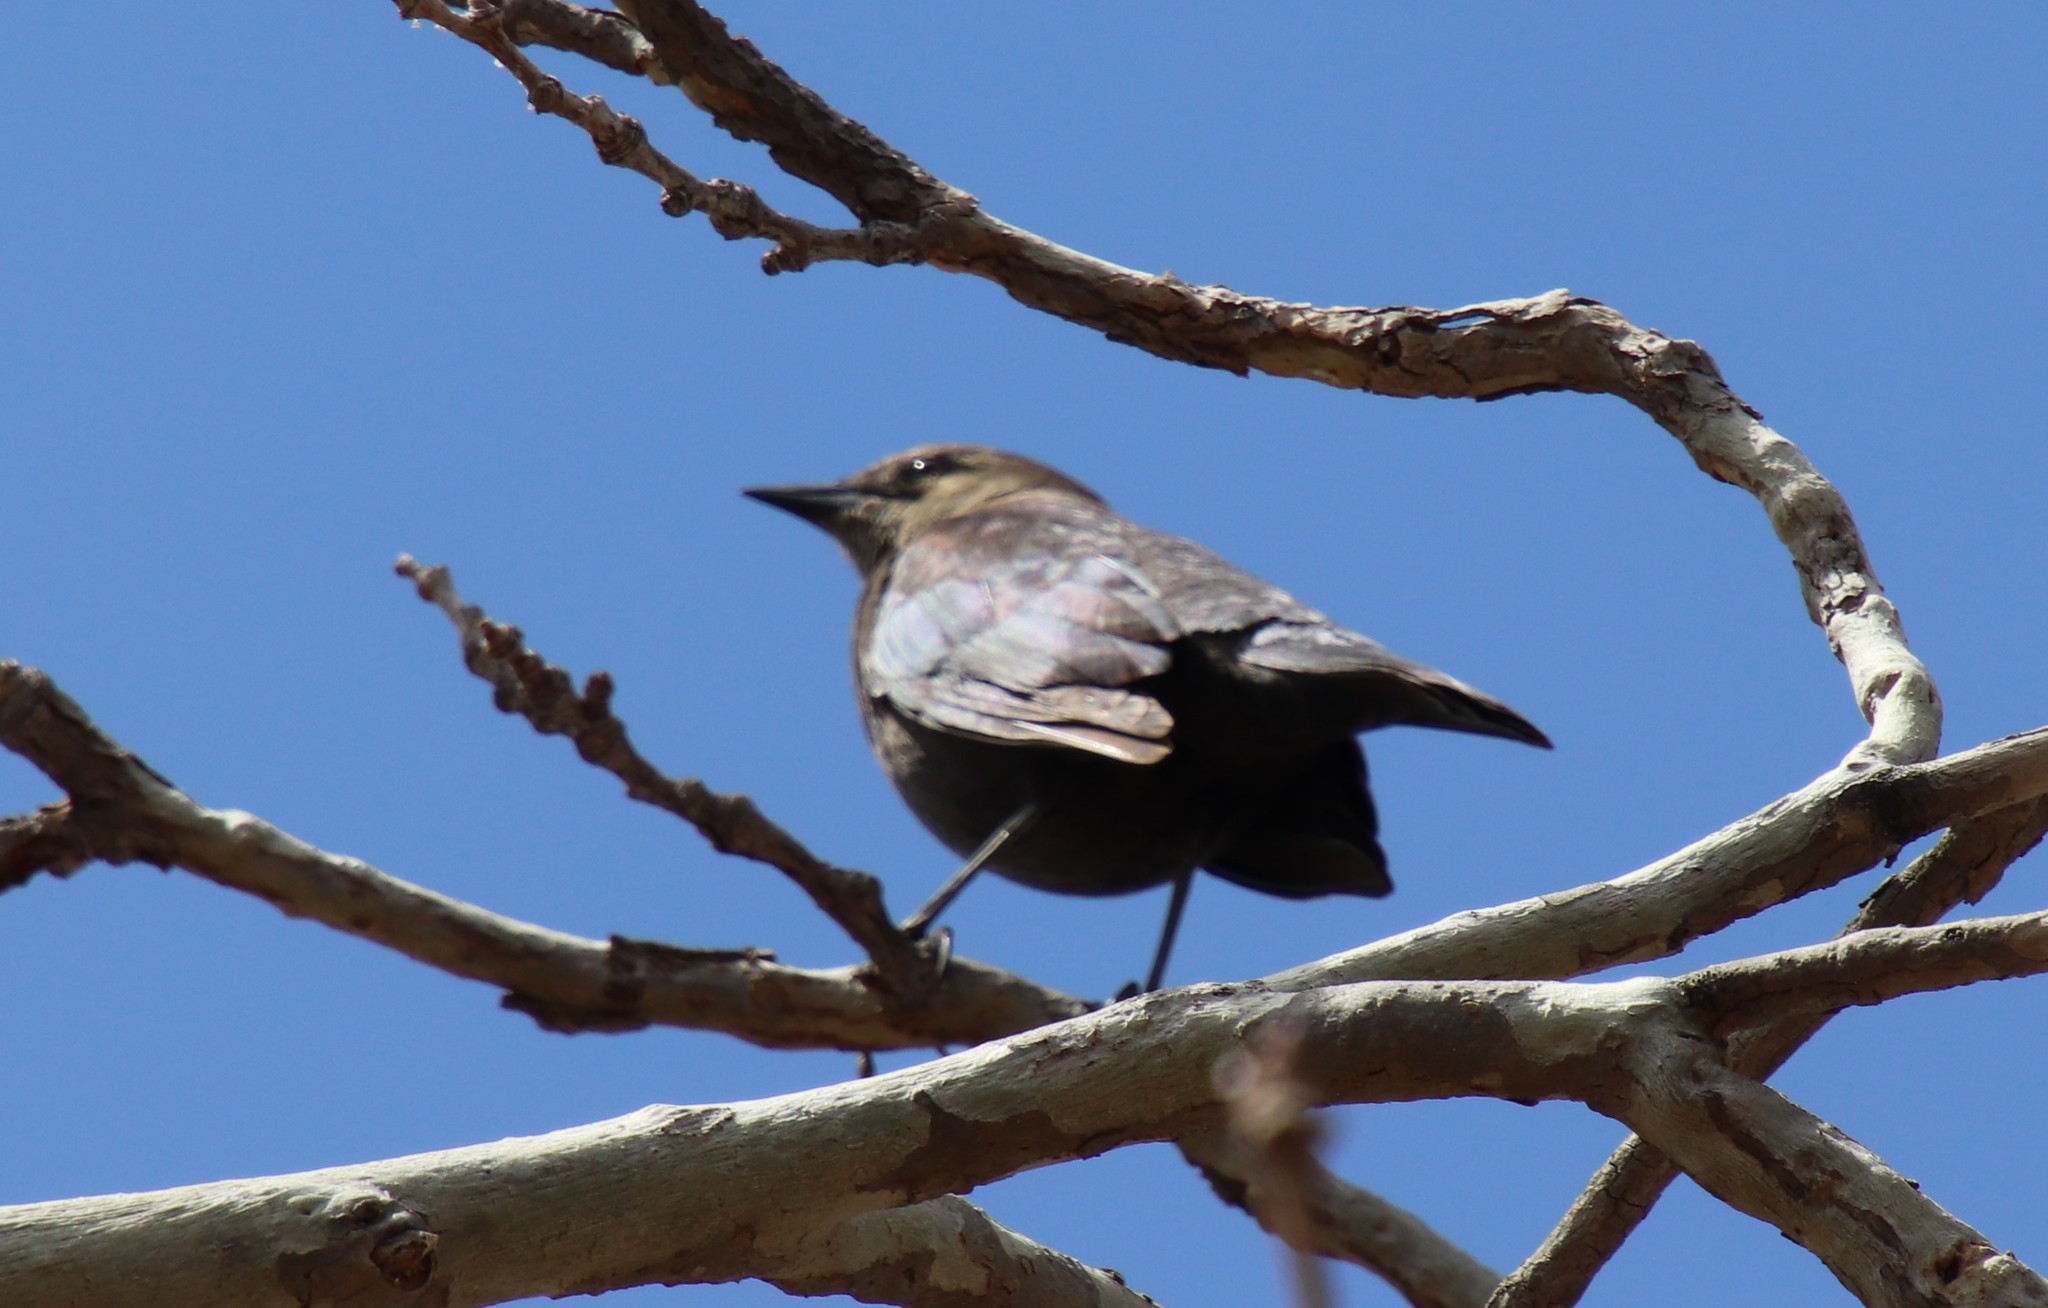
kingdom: Animalia
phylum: Chordata
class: Aves
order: Passeriformes
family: Icteridae
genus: Euphagus
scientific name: Euphagus cyanocephalus
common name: Brewer's blackbird
